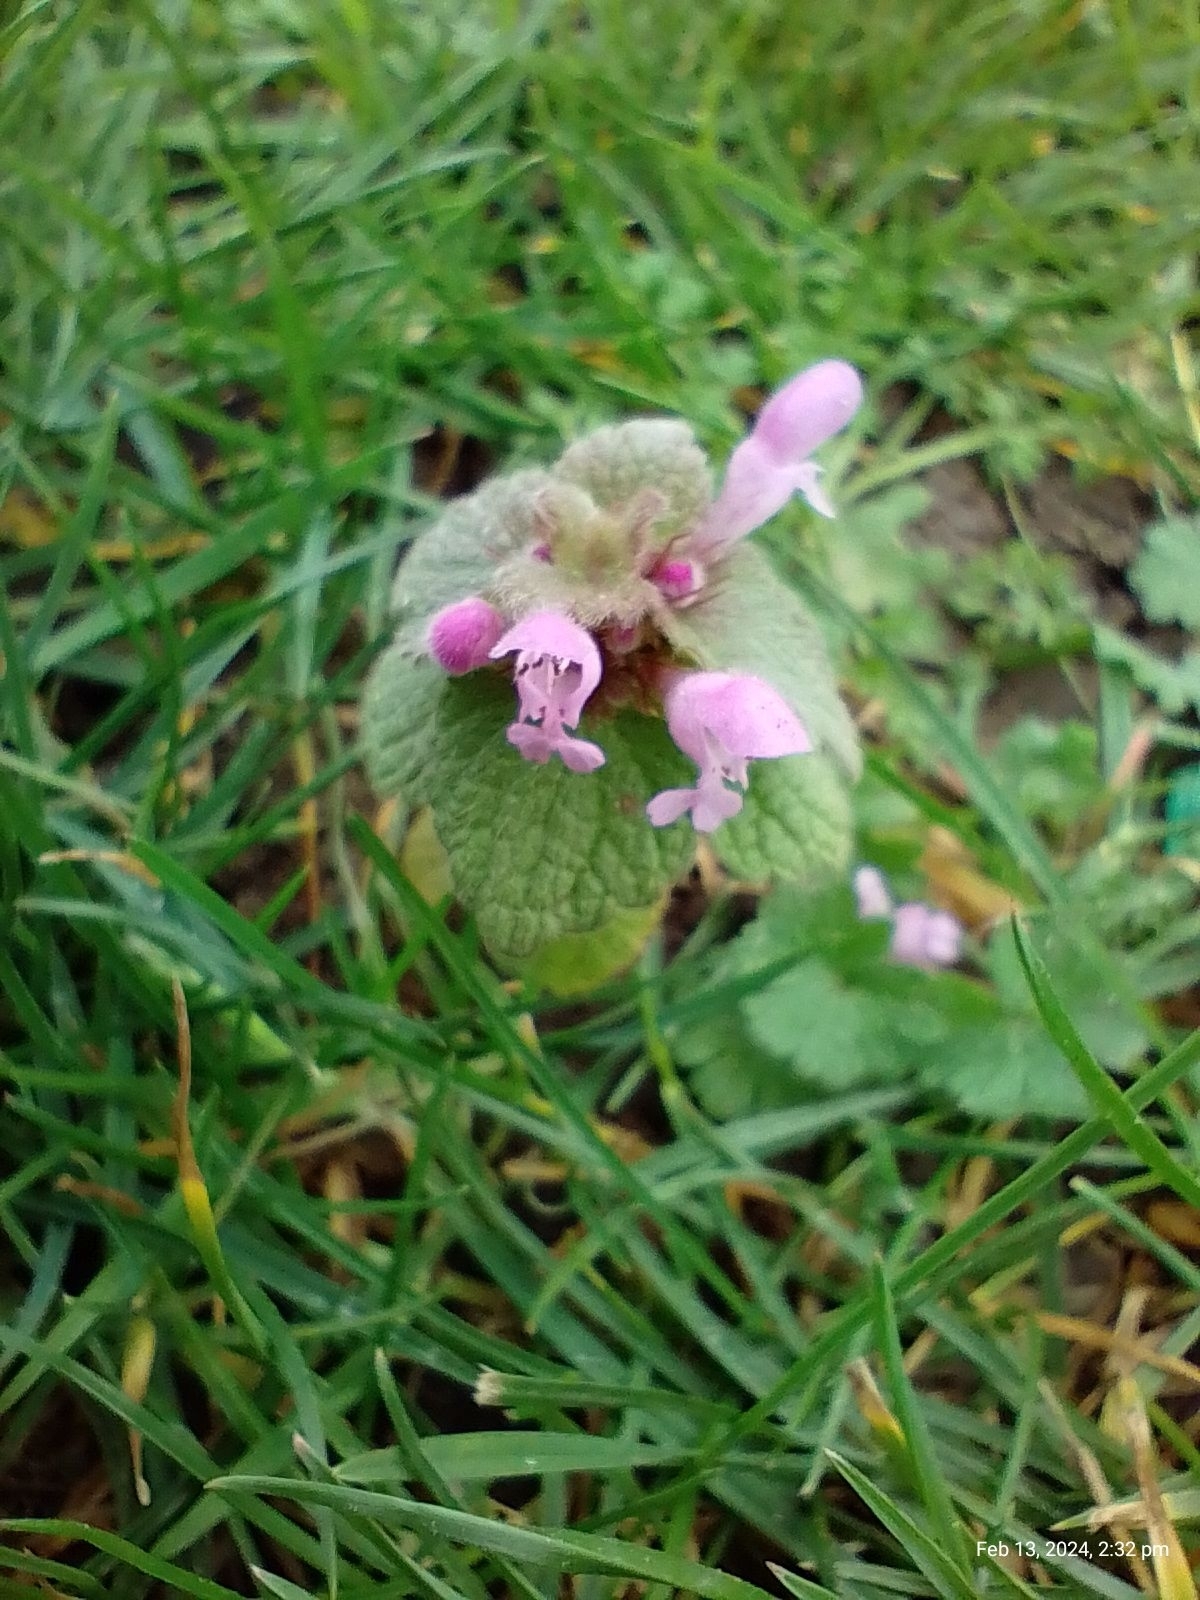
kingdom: Plantae
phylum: Tracheophyta
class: Magnoliopsida
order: Lamiales
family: Lamiaceae
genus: Lamium
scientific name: Lamium purpureum
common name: Red dead-nettle
